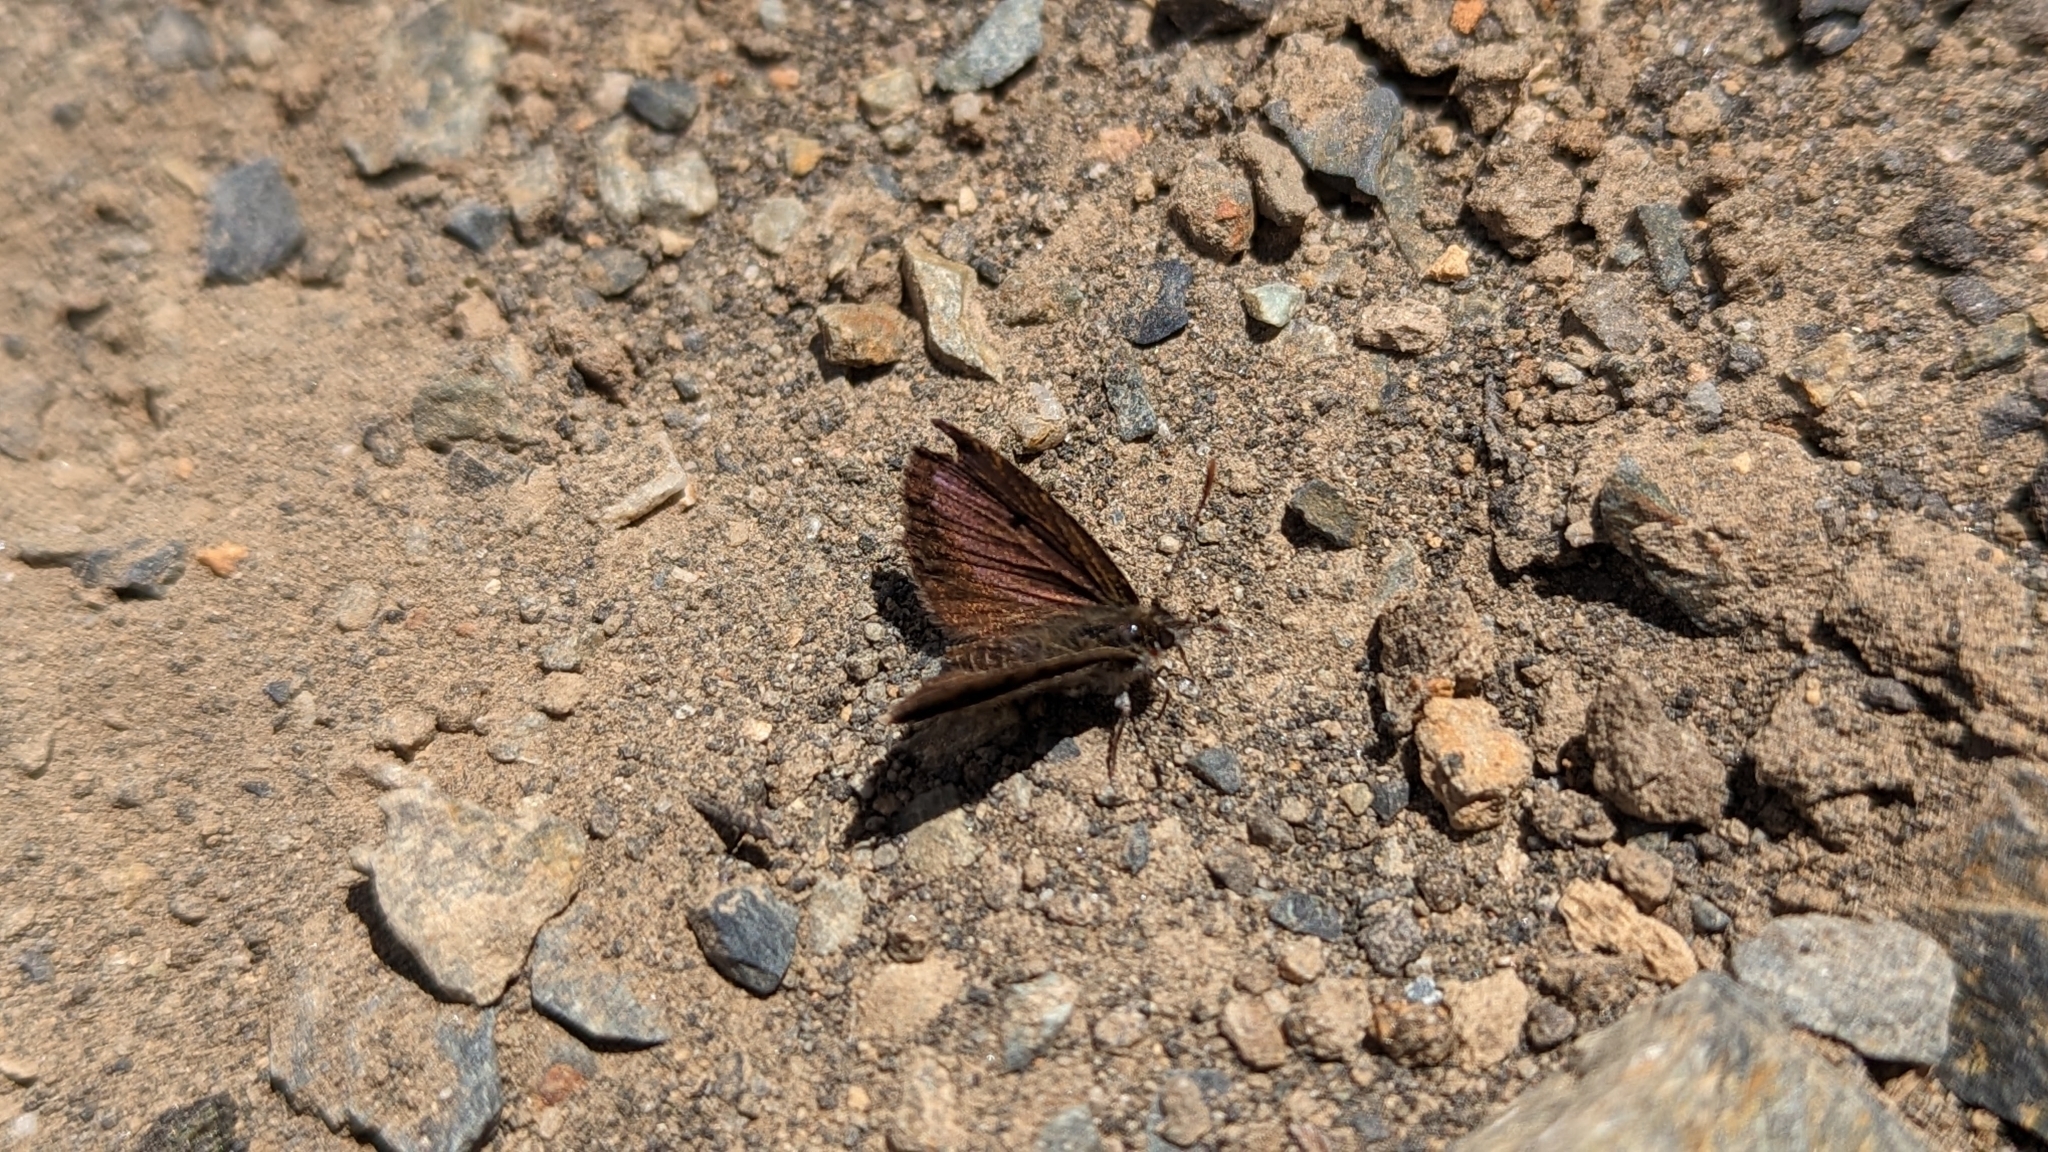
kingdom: Animalia
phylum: Arthropoda
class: Insecta
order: Lepidoptera
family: Lycaenidae
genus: Lycaena
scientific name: Lycaena boldenarum
